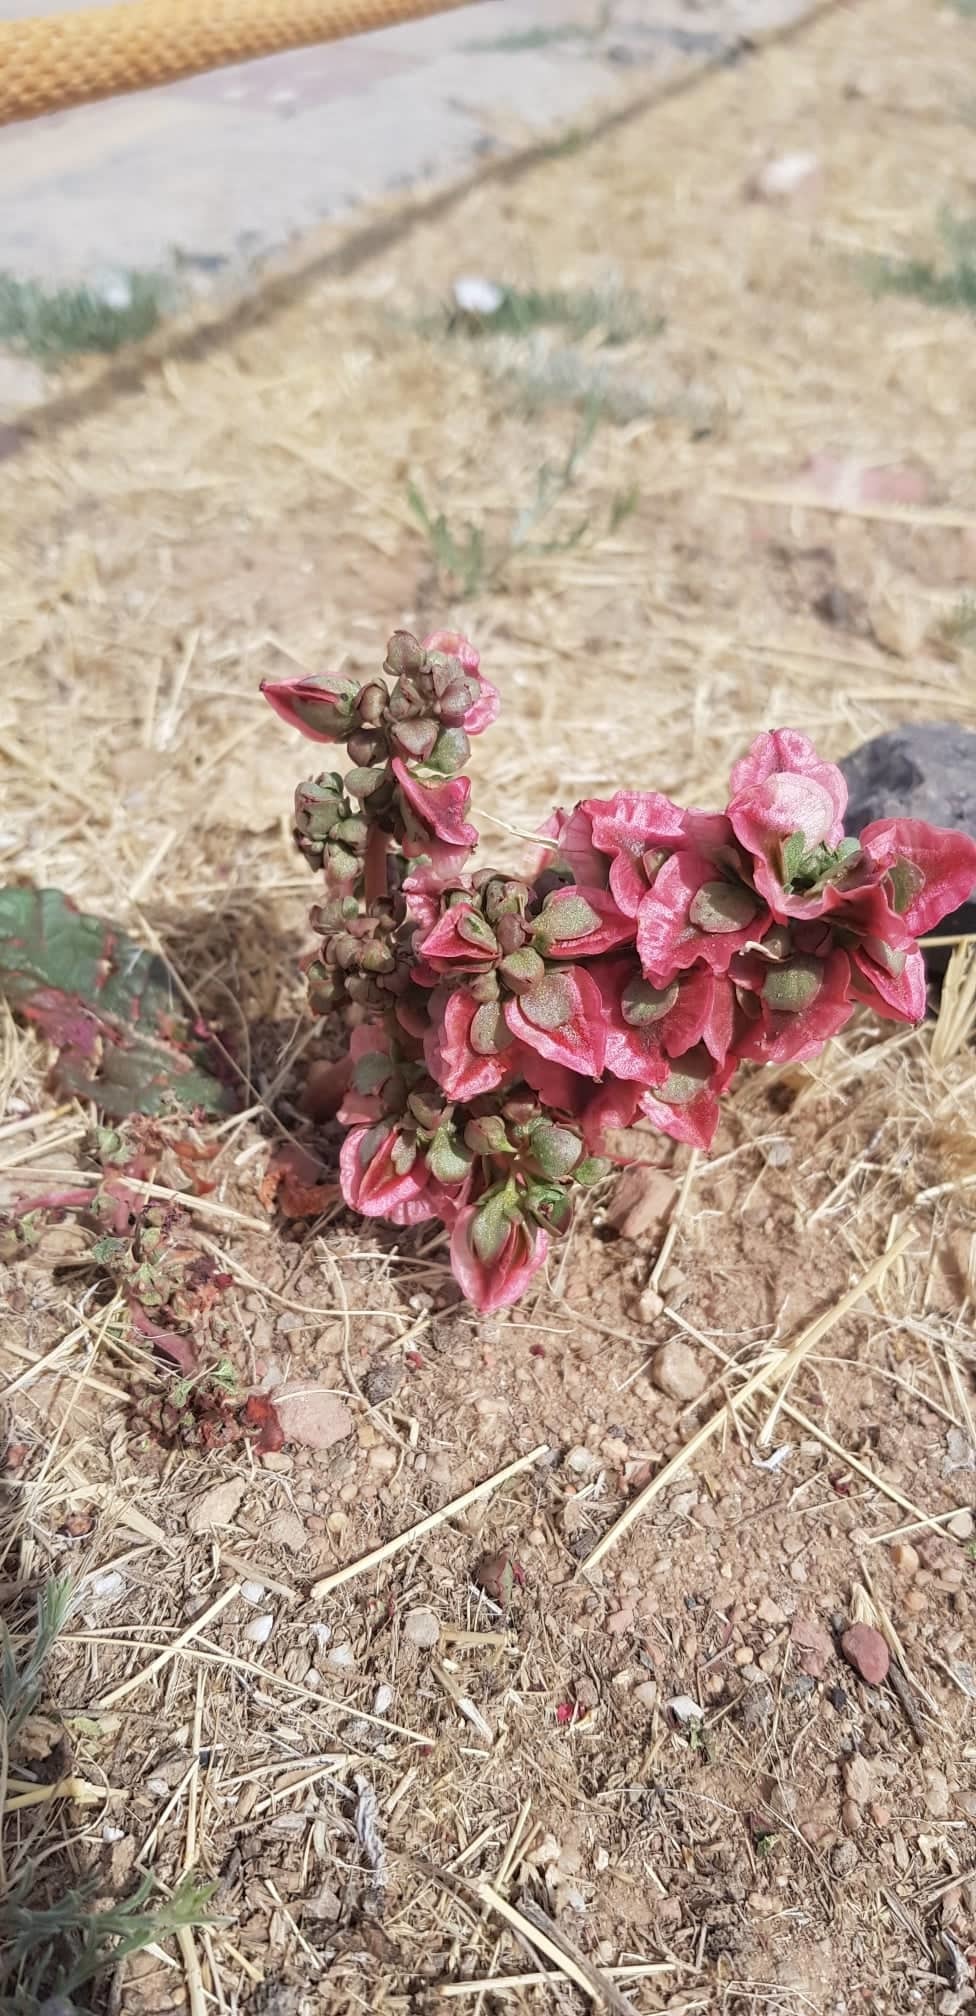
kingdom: Plantae
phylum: Tracheophyta
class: Magnoliopsida
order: Caryophyllales
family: Polygonaceae
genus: Rheum
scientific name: Rheum nanum
